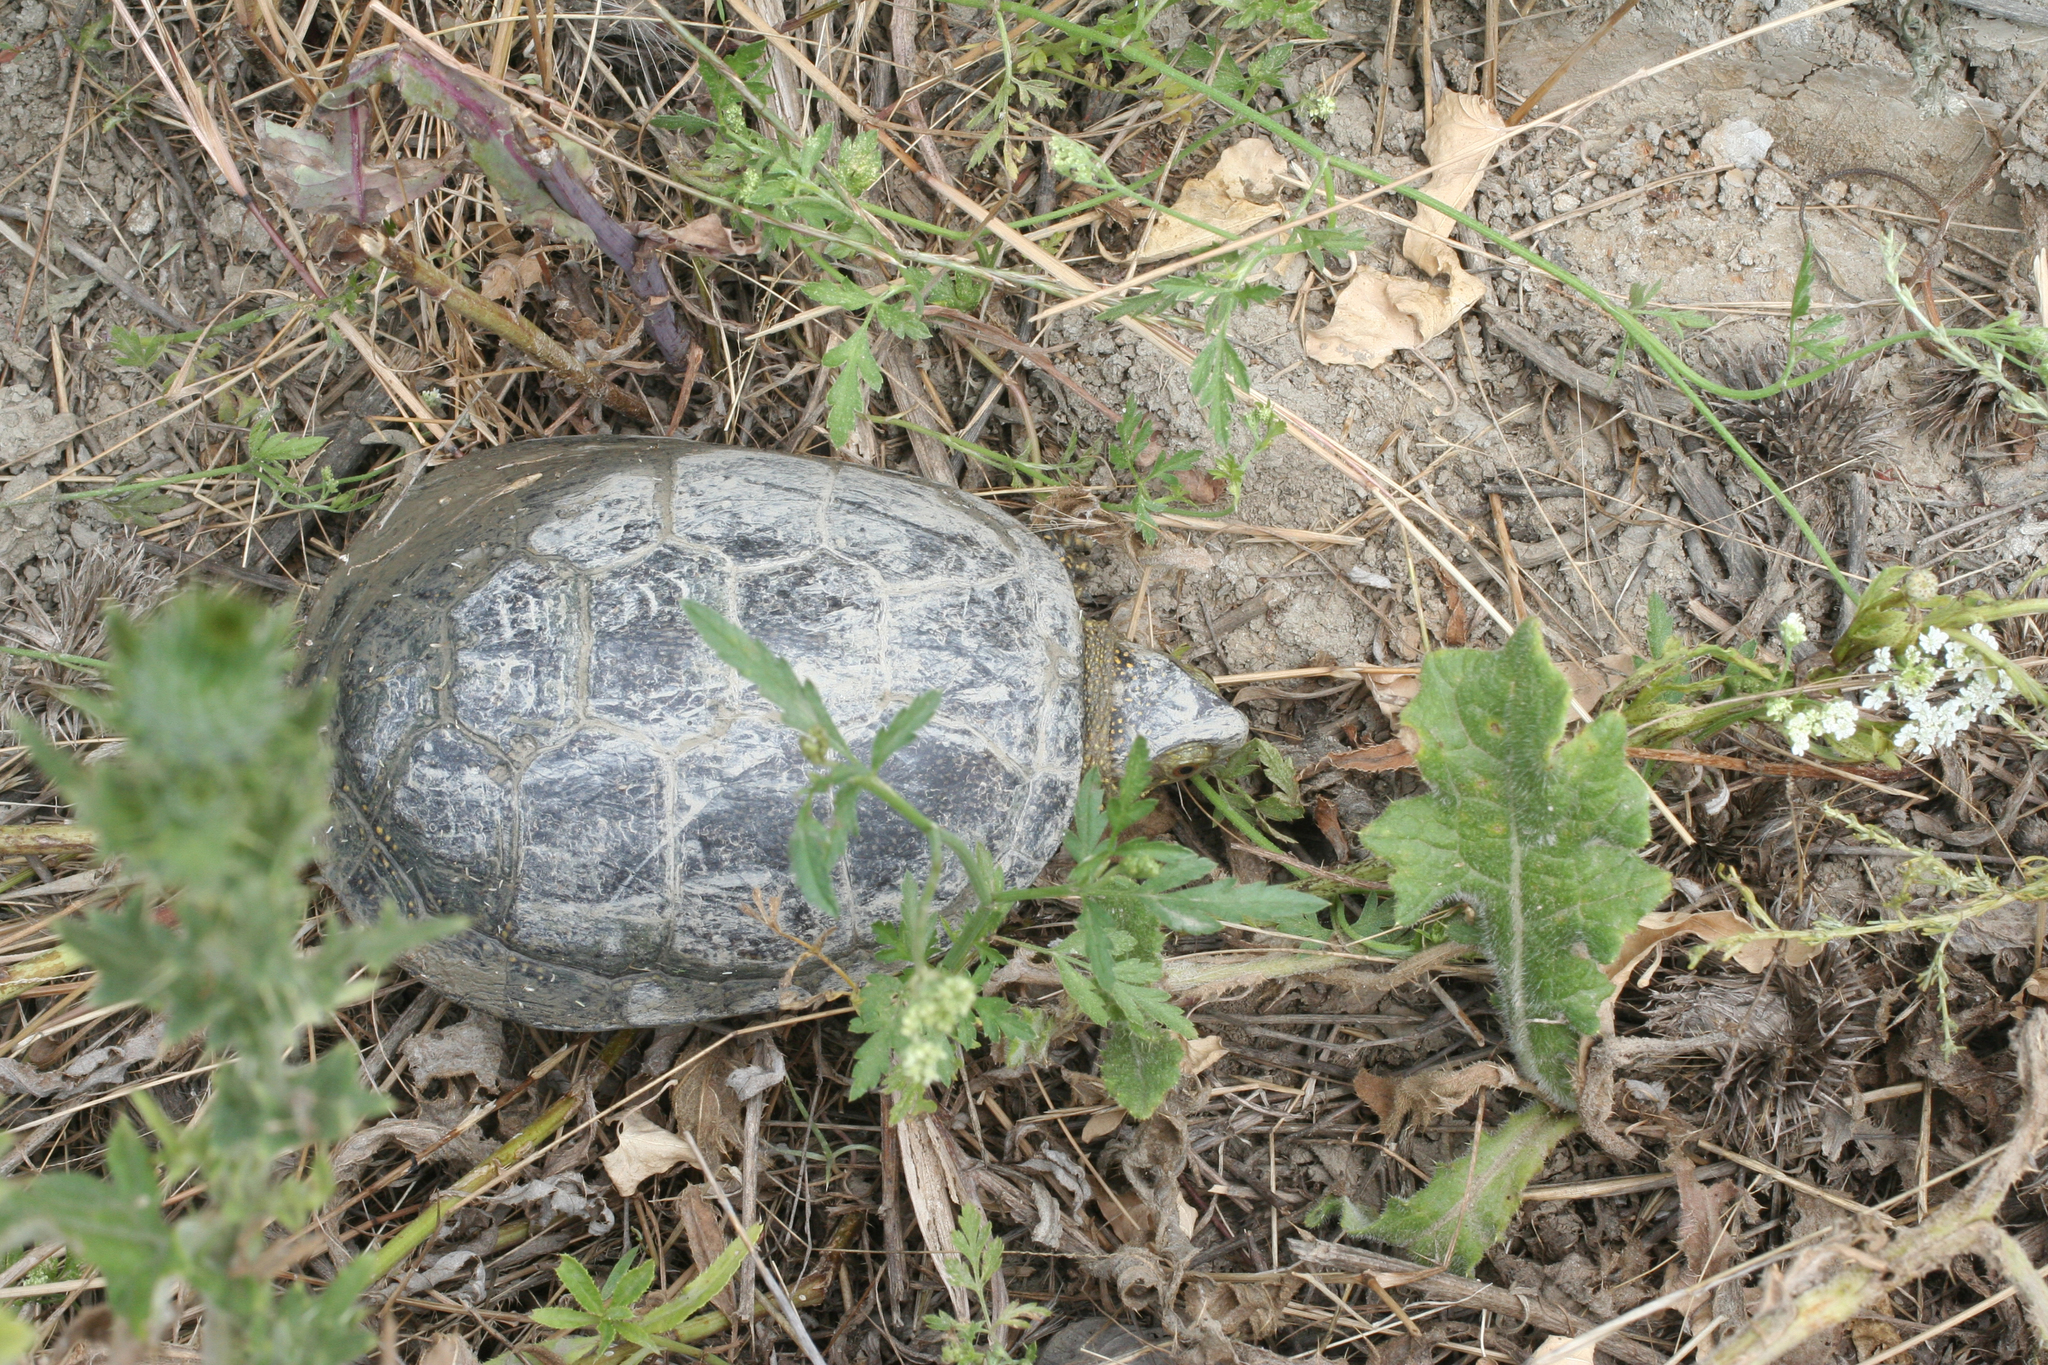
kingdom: Animalia
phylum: Chordata
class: Testudines
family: Emydidae
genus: Emys
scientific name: Emys orbicularis
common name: European pond turtle
